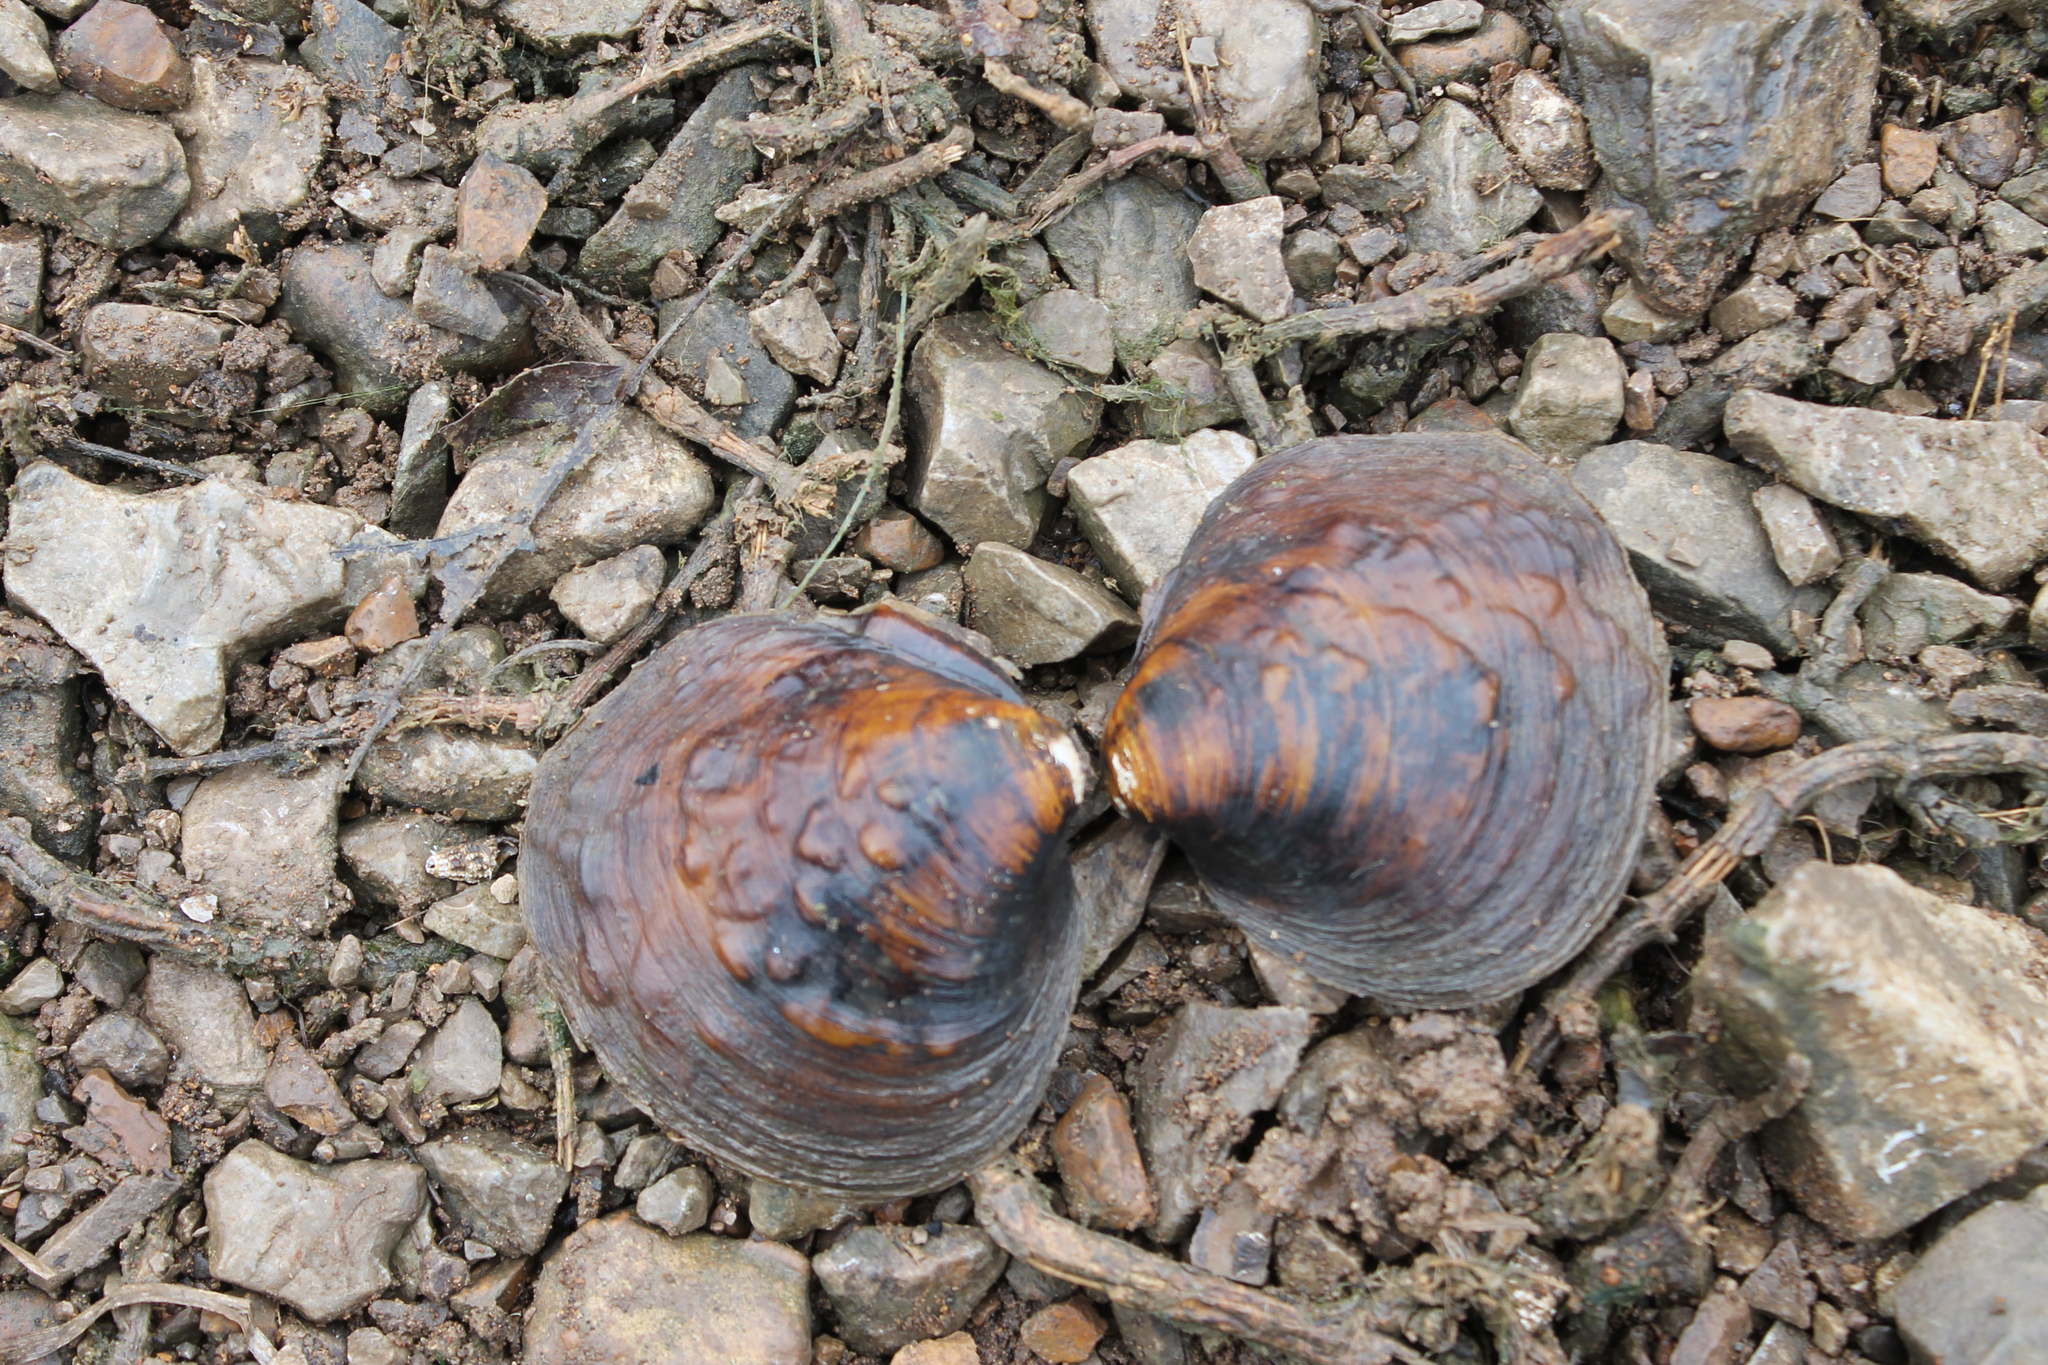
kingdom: Animalia
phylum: Mollusca
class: Bivalvia
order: Unionida
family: Unionidae
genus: Cyclonaias
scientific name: Cyclonaias pustulosa
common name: Pimpleback
